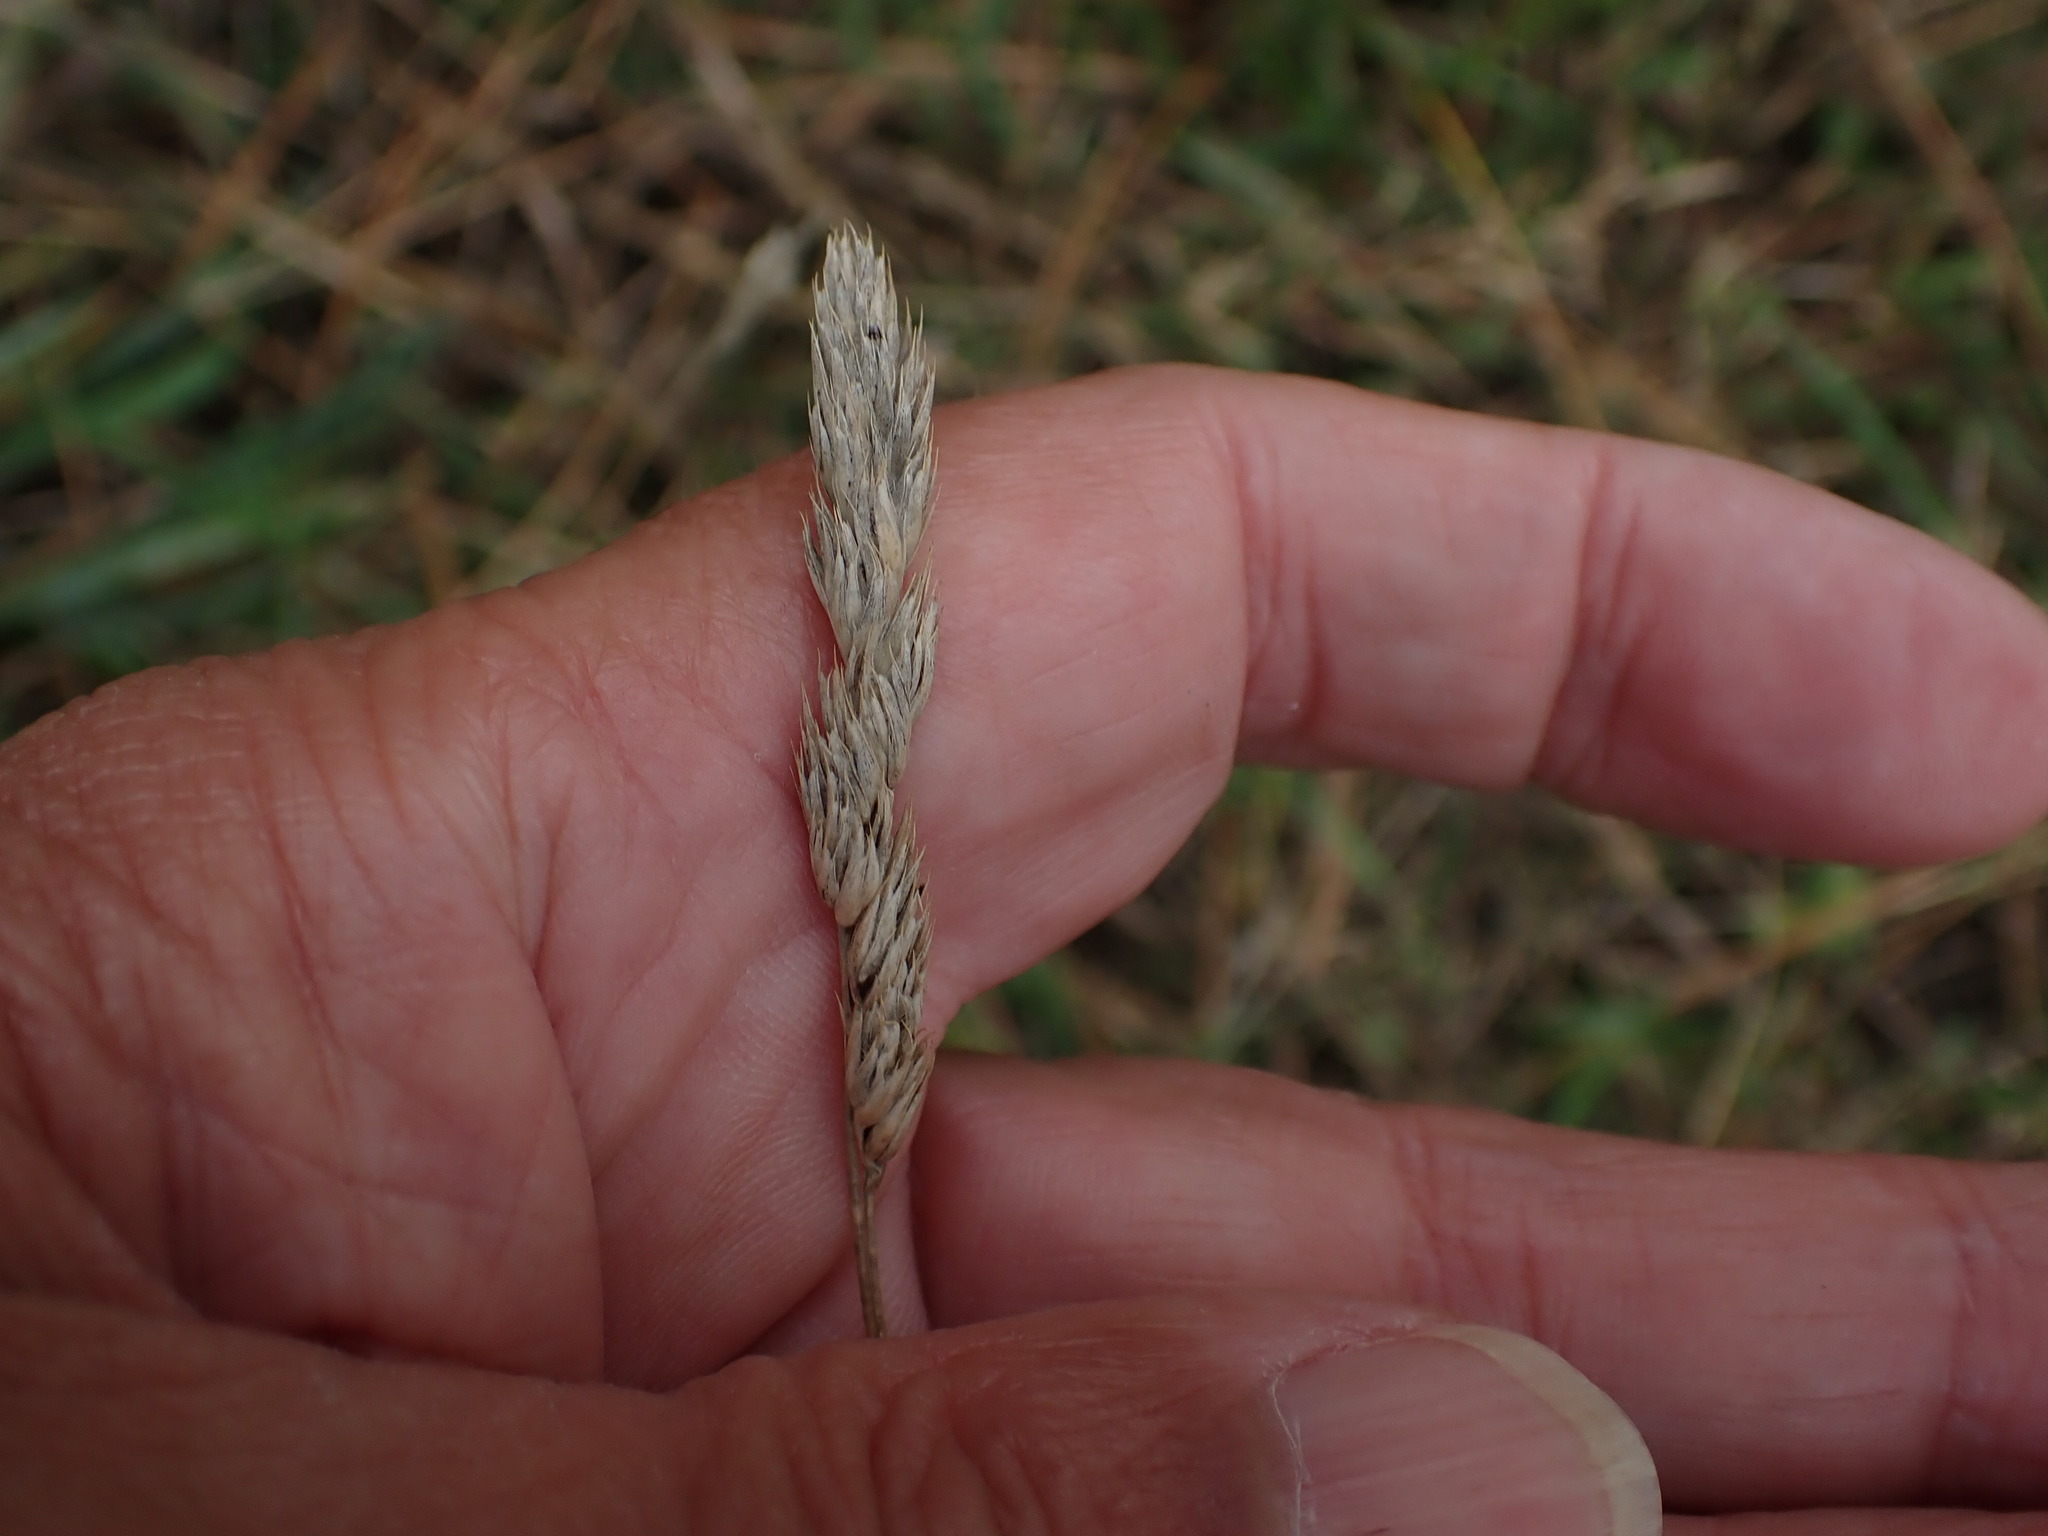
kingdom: Plantae
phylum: Tracheophyta
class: Liliopsida
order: Poales
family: Poaceae
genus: Dactylis
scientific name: Dactylis glomerata
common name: Orchardgrass
